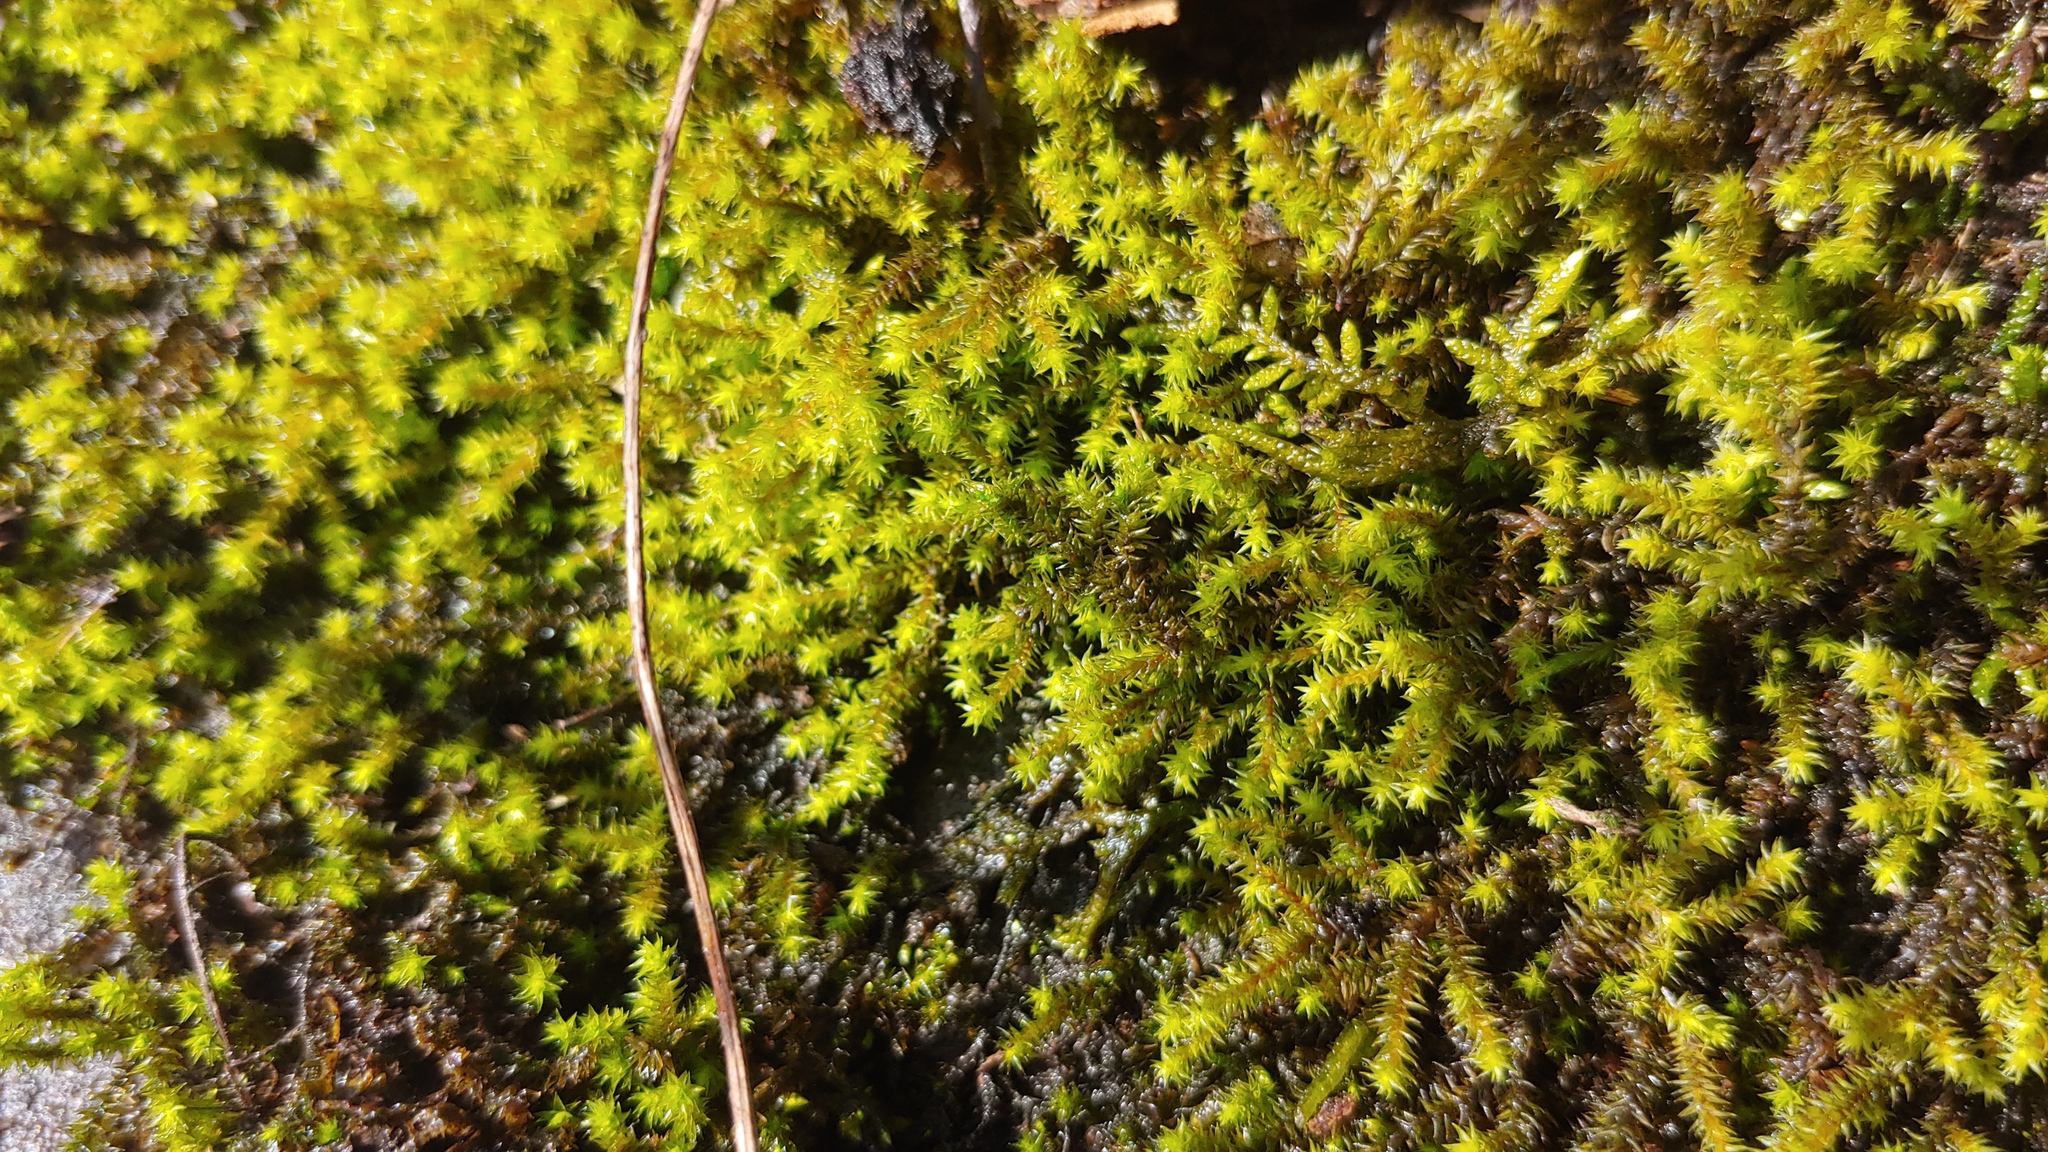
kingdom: Plantae
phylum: Bryophyta
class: Bryopsida
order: Hedwigiales
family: Hedwigiaceae
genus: Hedwigia
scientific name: Hedwigia ciliata
